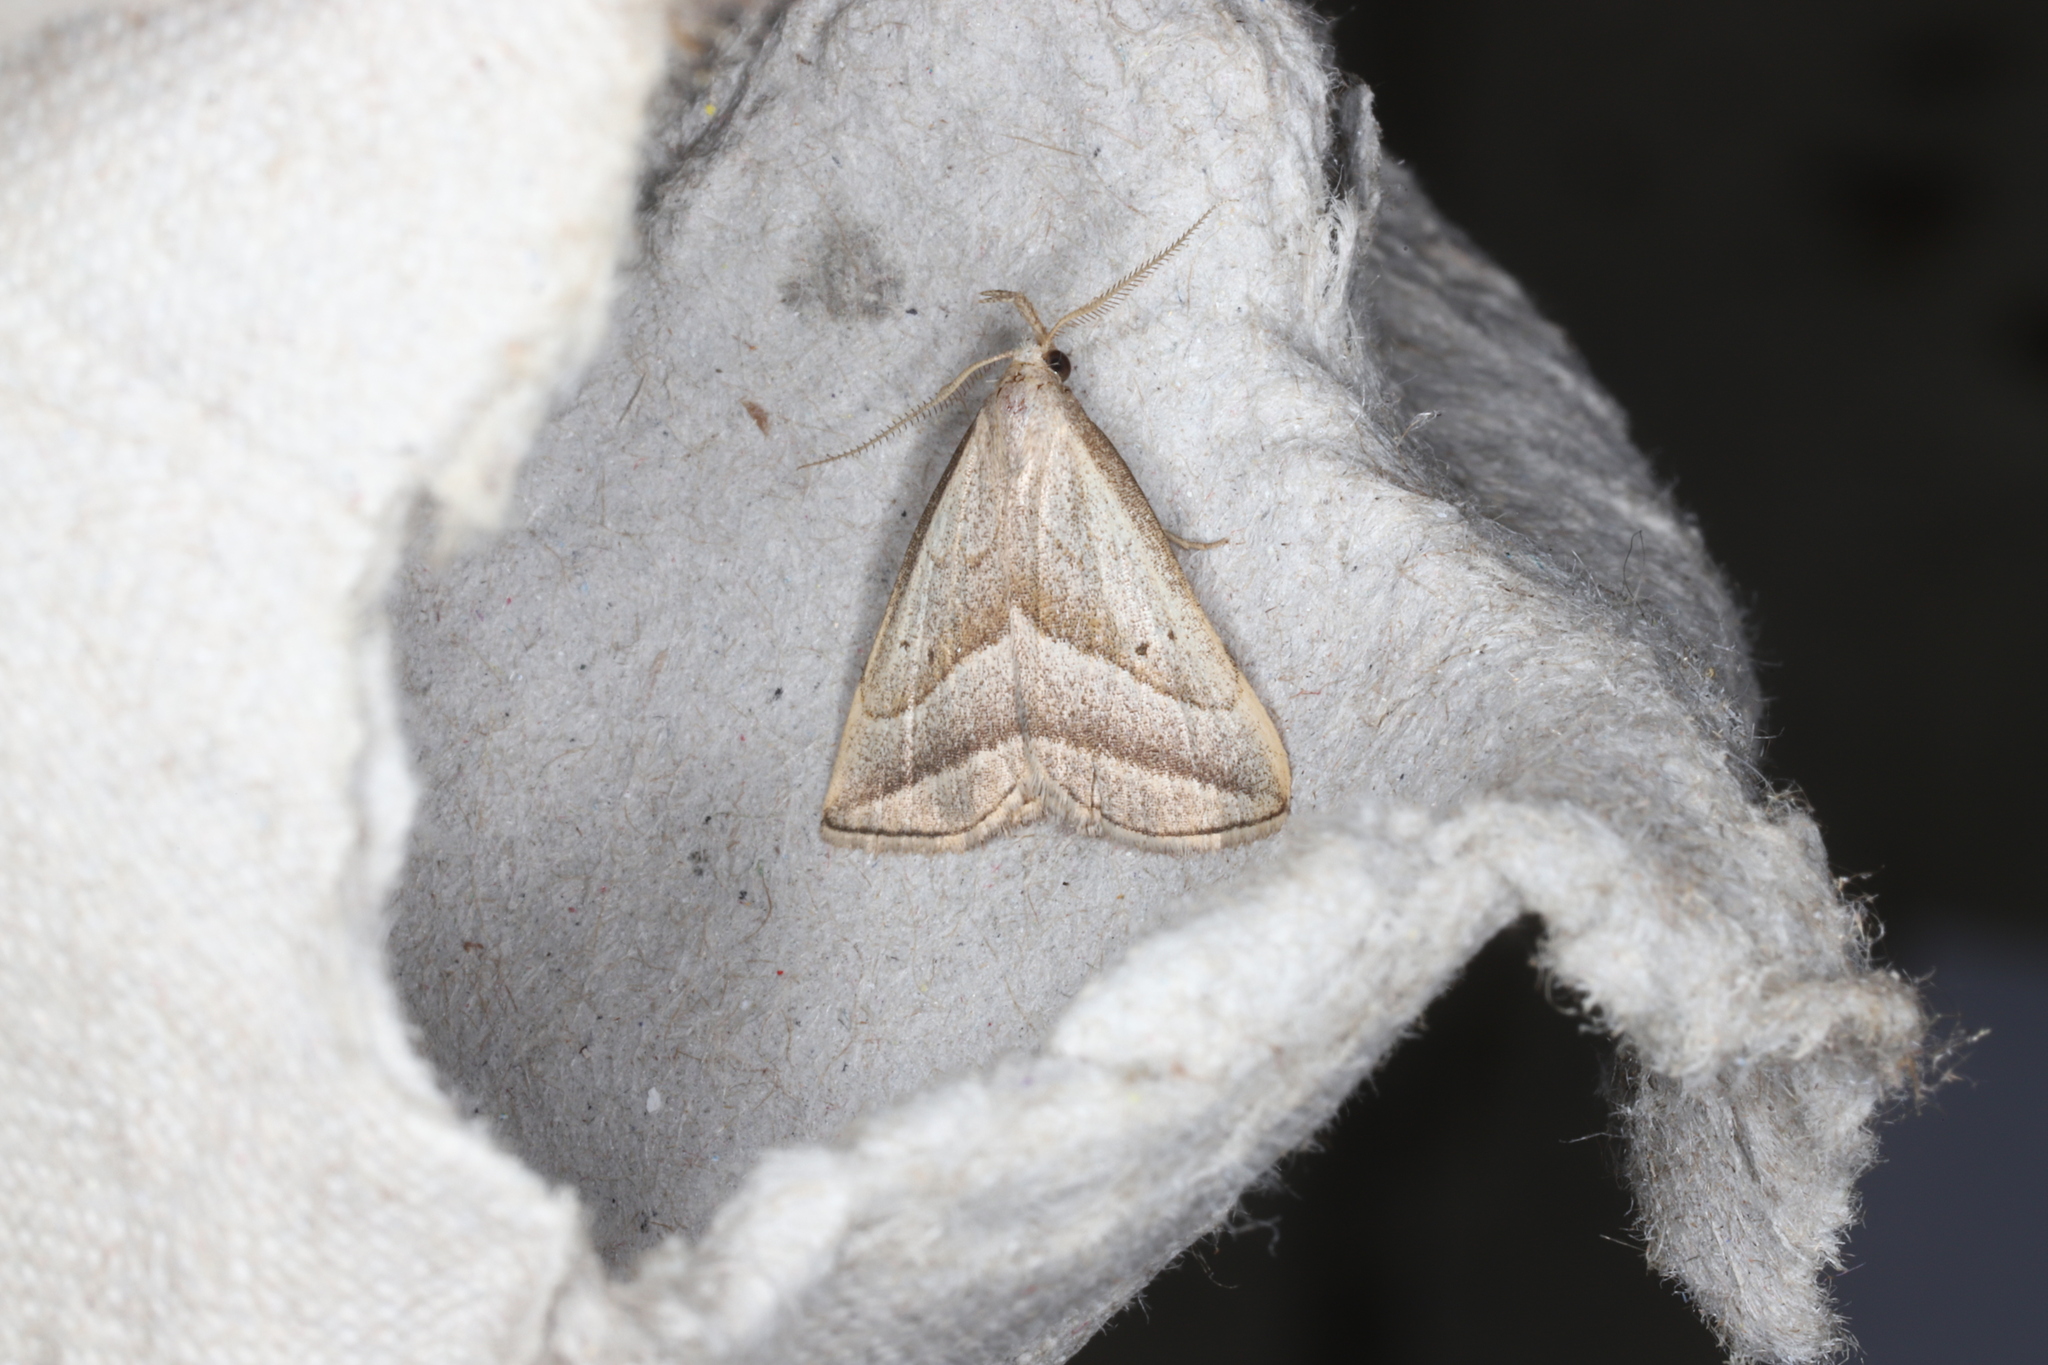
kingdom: Animalia
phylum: Arthropoda
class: Insecta
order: Lepidoptera
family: Erebidae
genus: Macrochilo
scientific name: Macrochilo absorptalis
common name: Slant-lined owlet
